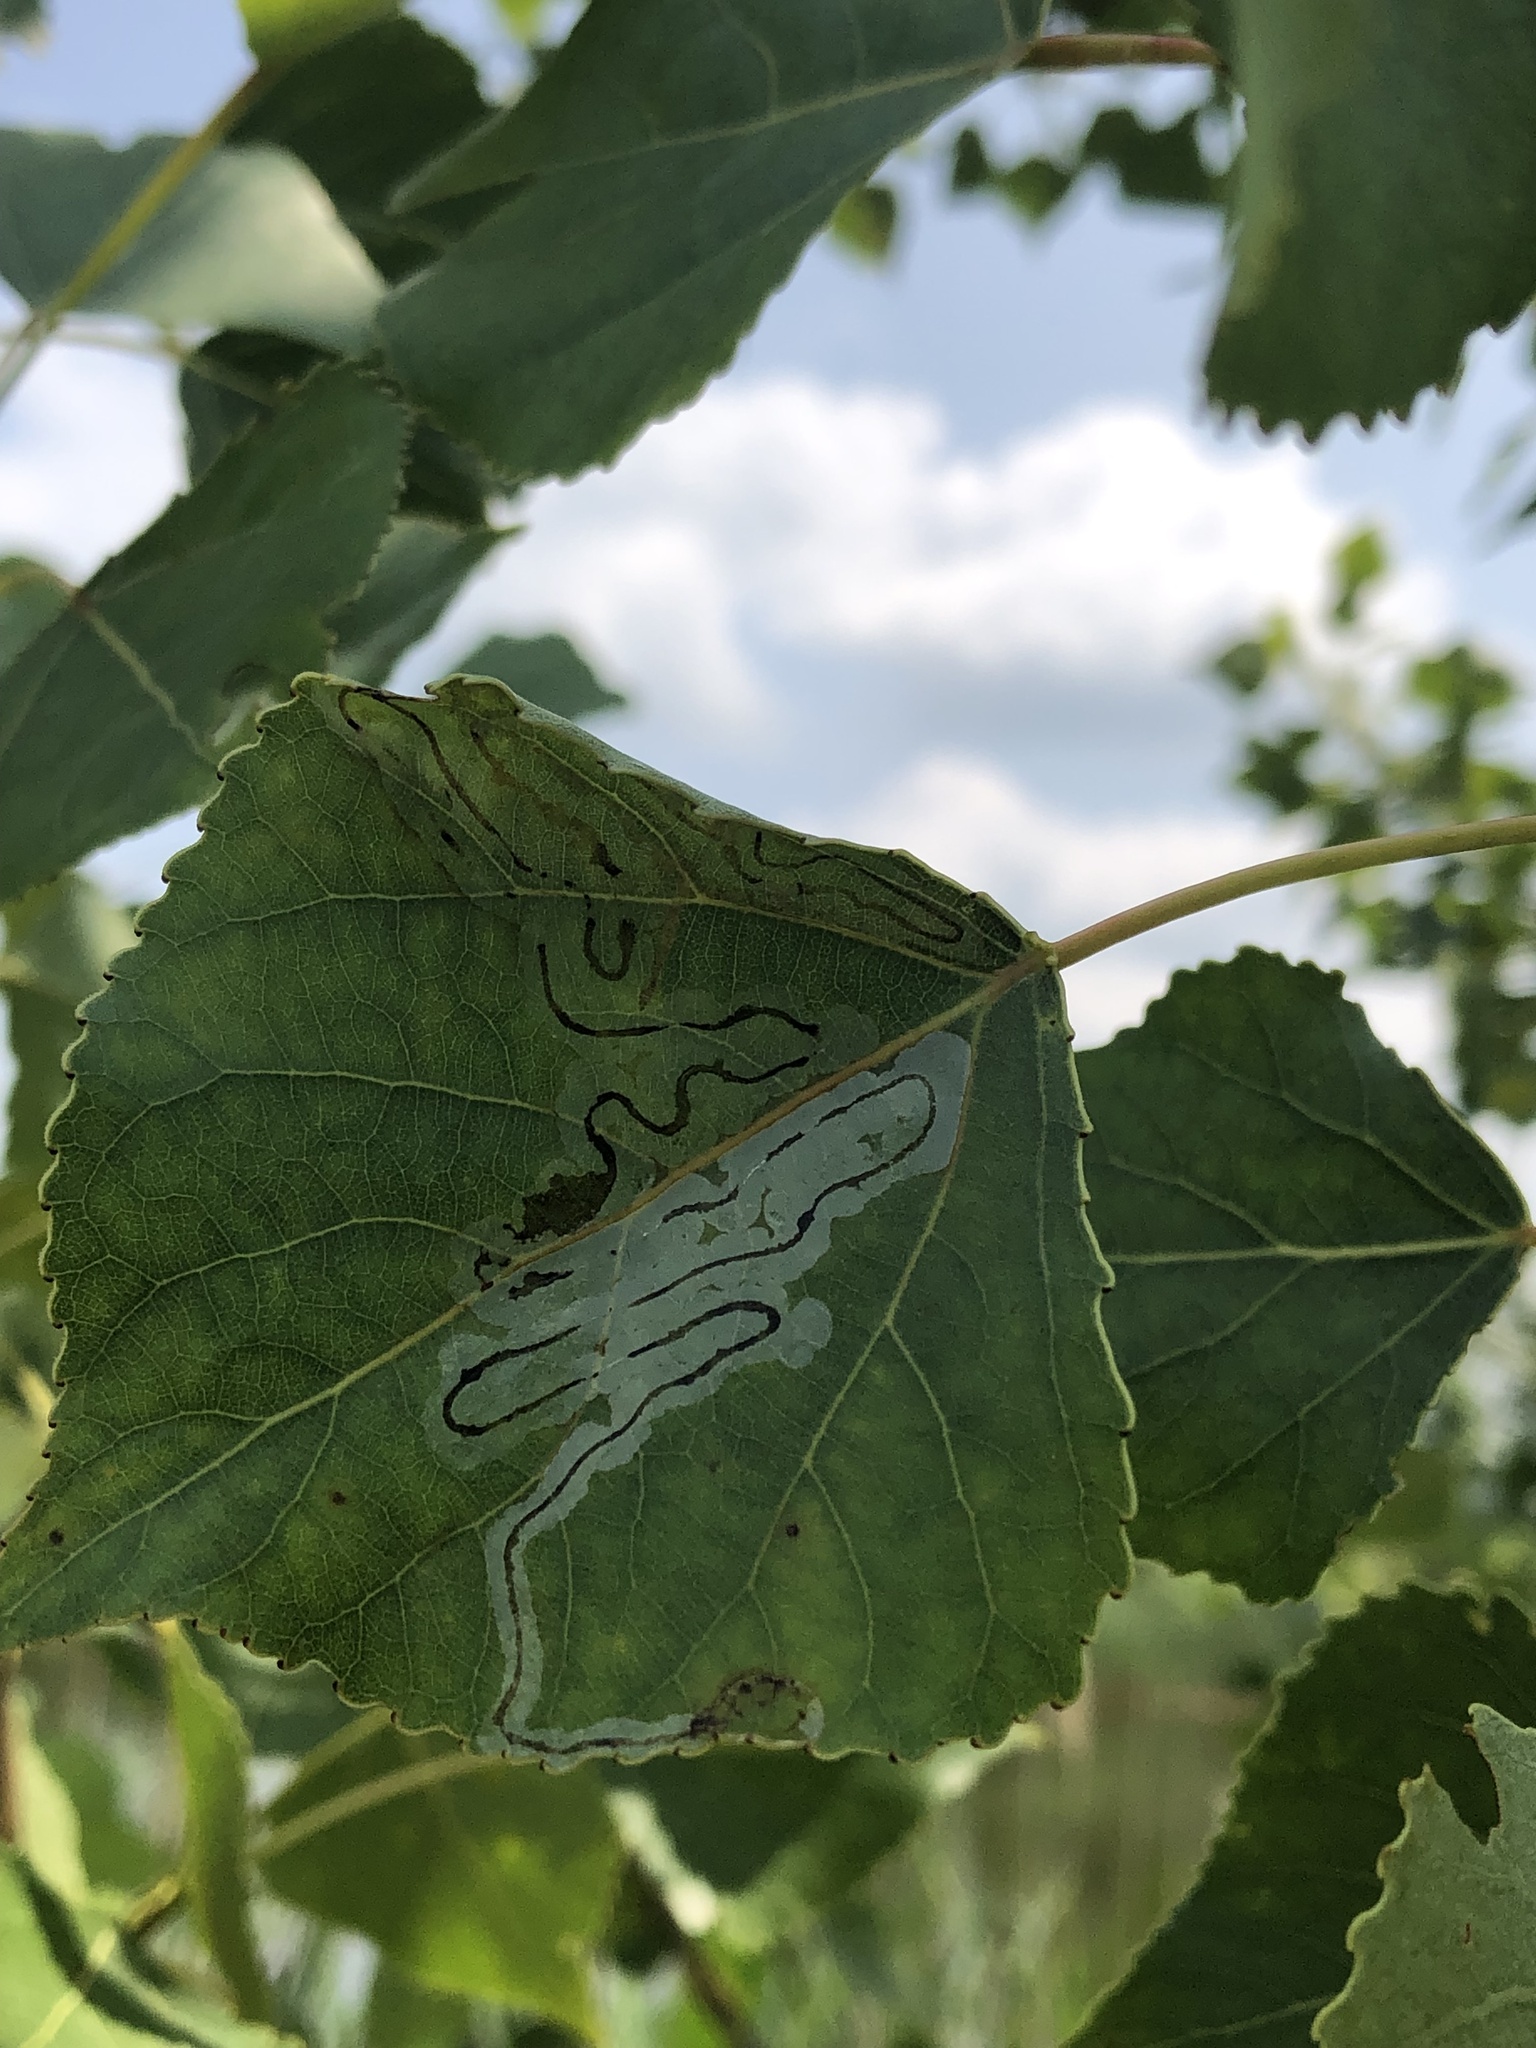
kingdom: Animalia
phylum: Arthropoda
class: Insecta
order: Lepidoptera
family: Gracillariidae
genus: Phyllocnistis
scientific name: Phyllocnistis populiella
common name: Aspen serpentine leafminer moth
